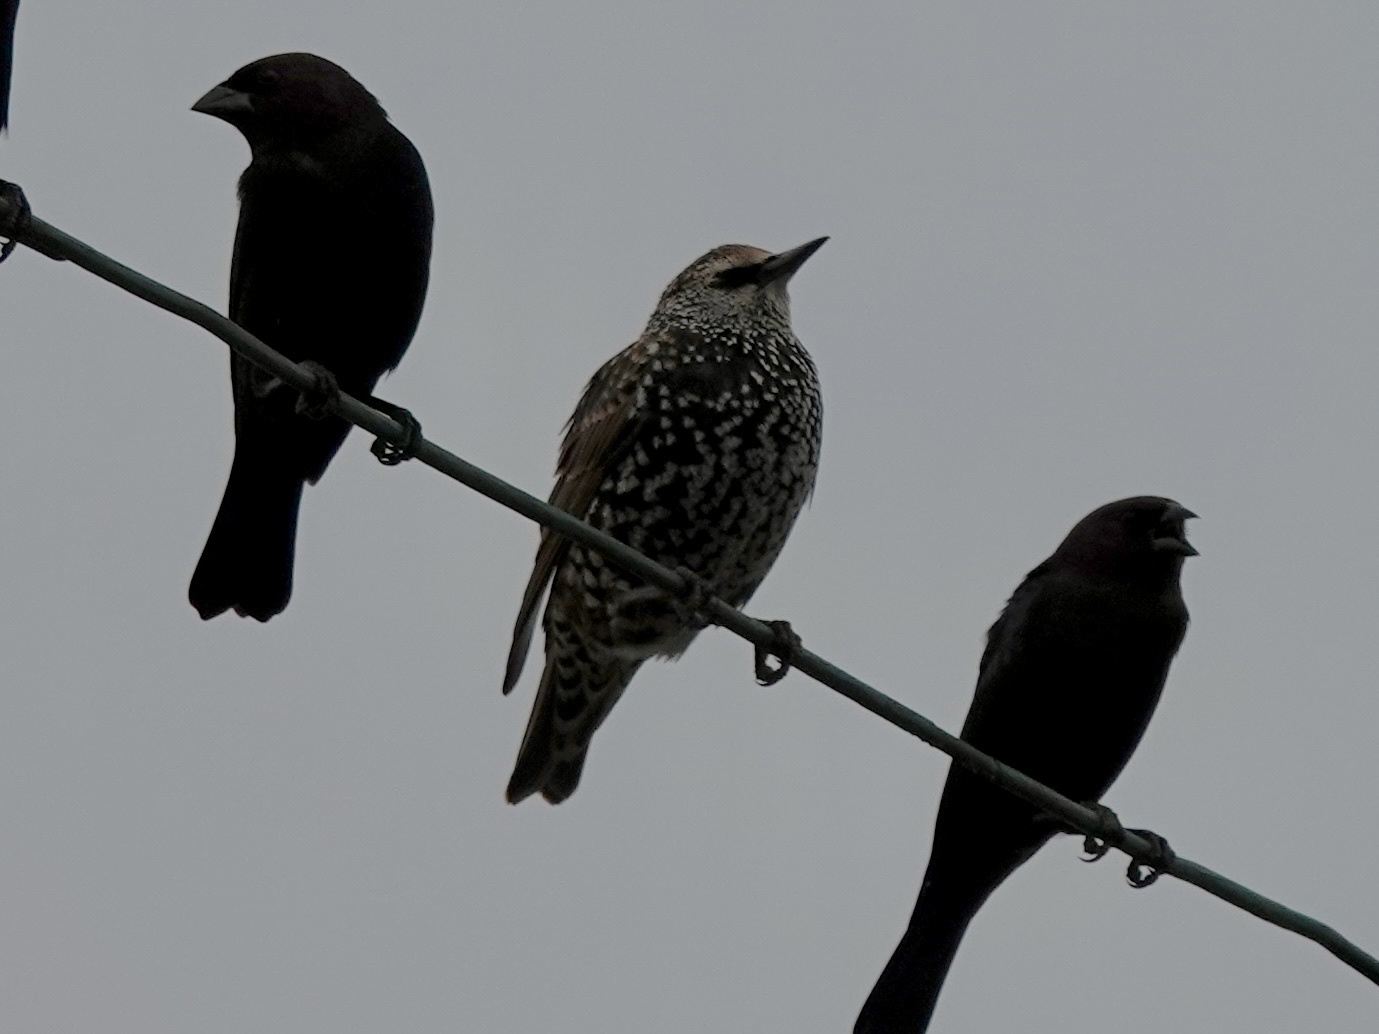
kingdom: Animalia
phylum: Chordata
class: Aves
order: Passeriformes
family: Sturnidae
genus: Sturnus
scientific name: Sturnus vulgaris
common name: Common starling
